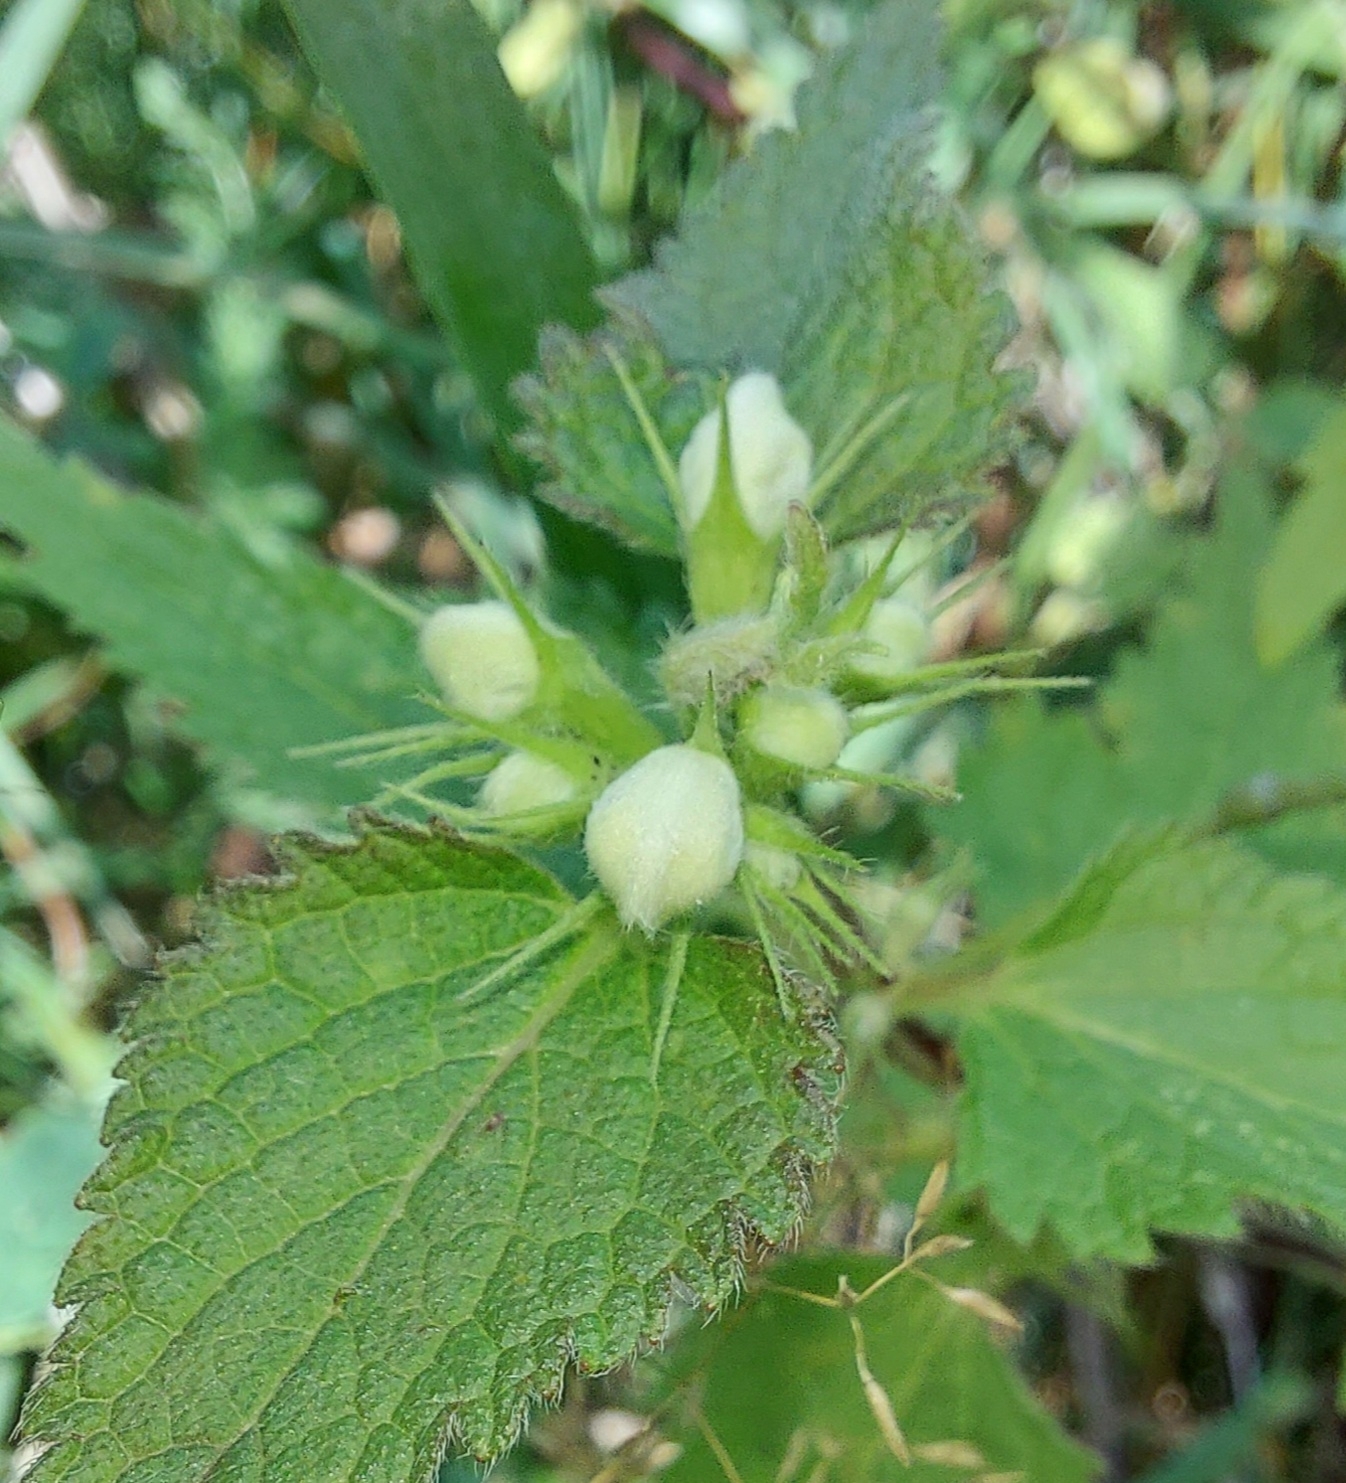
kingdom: Plantae
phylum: Tracheophyta
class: Magnoliopsida
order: Lamiales
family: Lamiaceae
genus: Lamium
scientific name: Lamium album
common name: White dead-nettle
